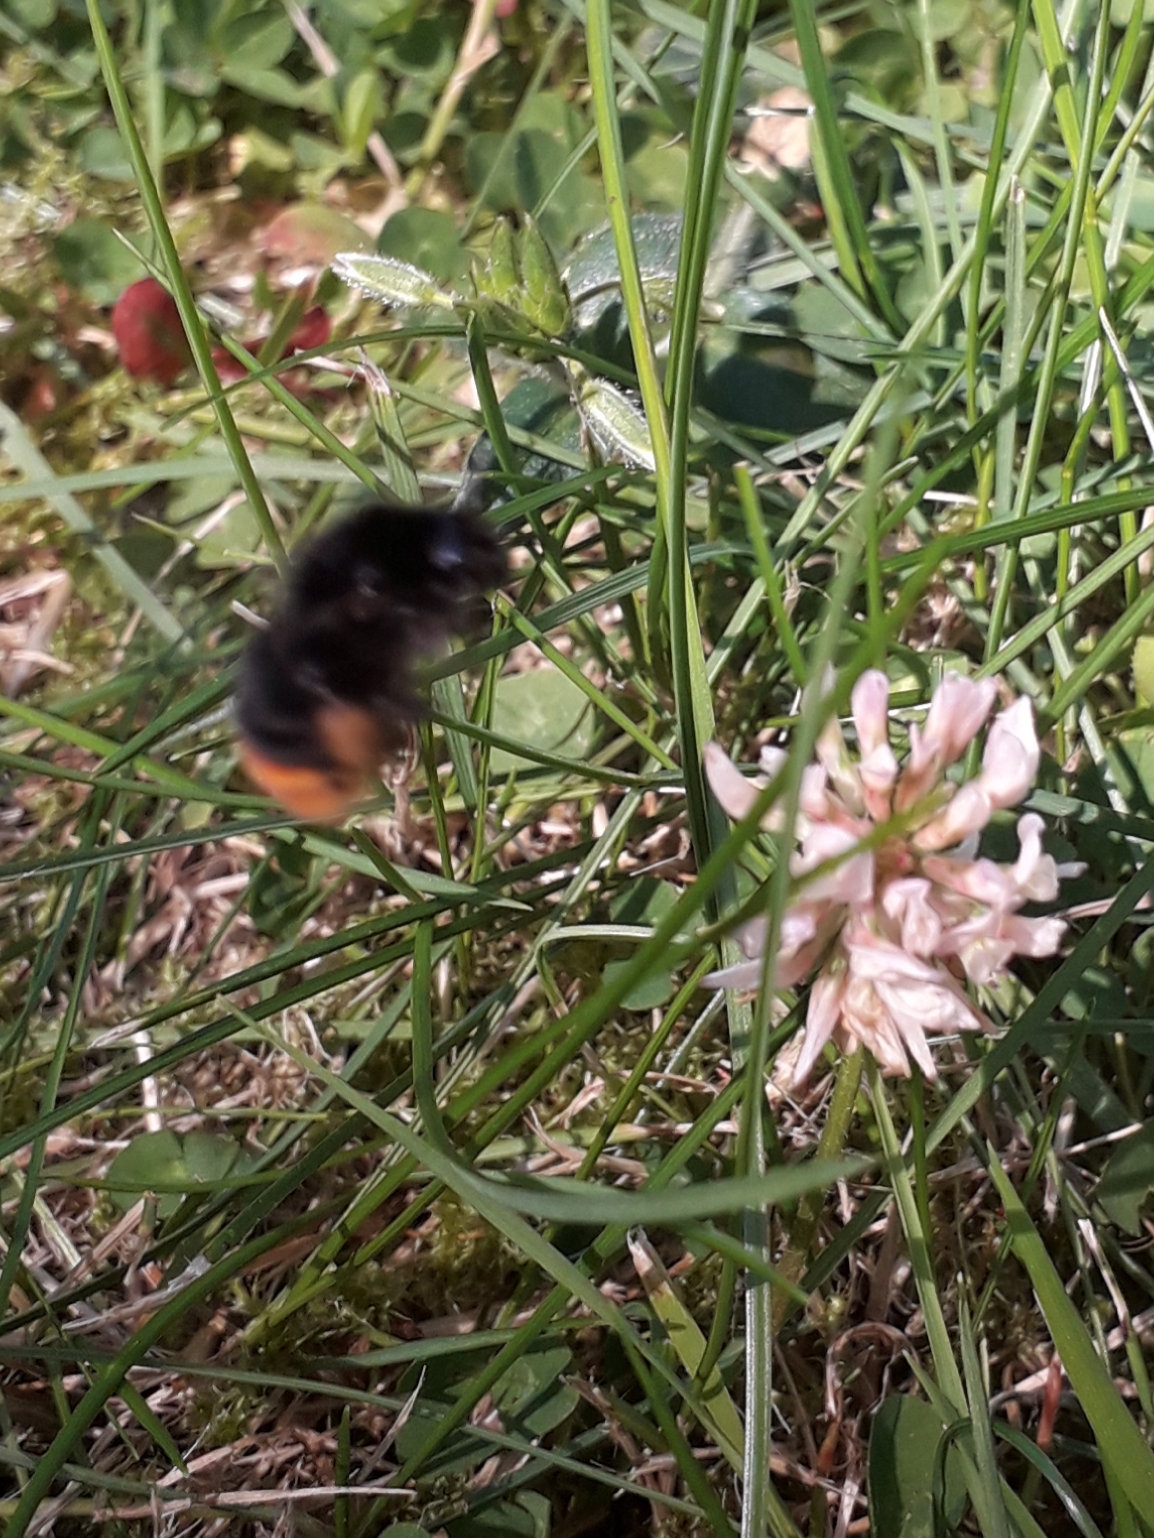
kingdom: Animalia
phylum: Arthropoda
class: Insecta
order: Hymenoptera
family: Apidae
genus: Bombus
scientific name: Bombus lapidarius
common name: Large red-tailed humble-bee
